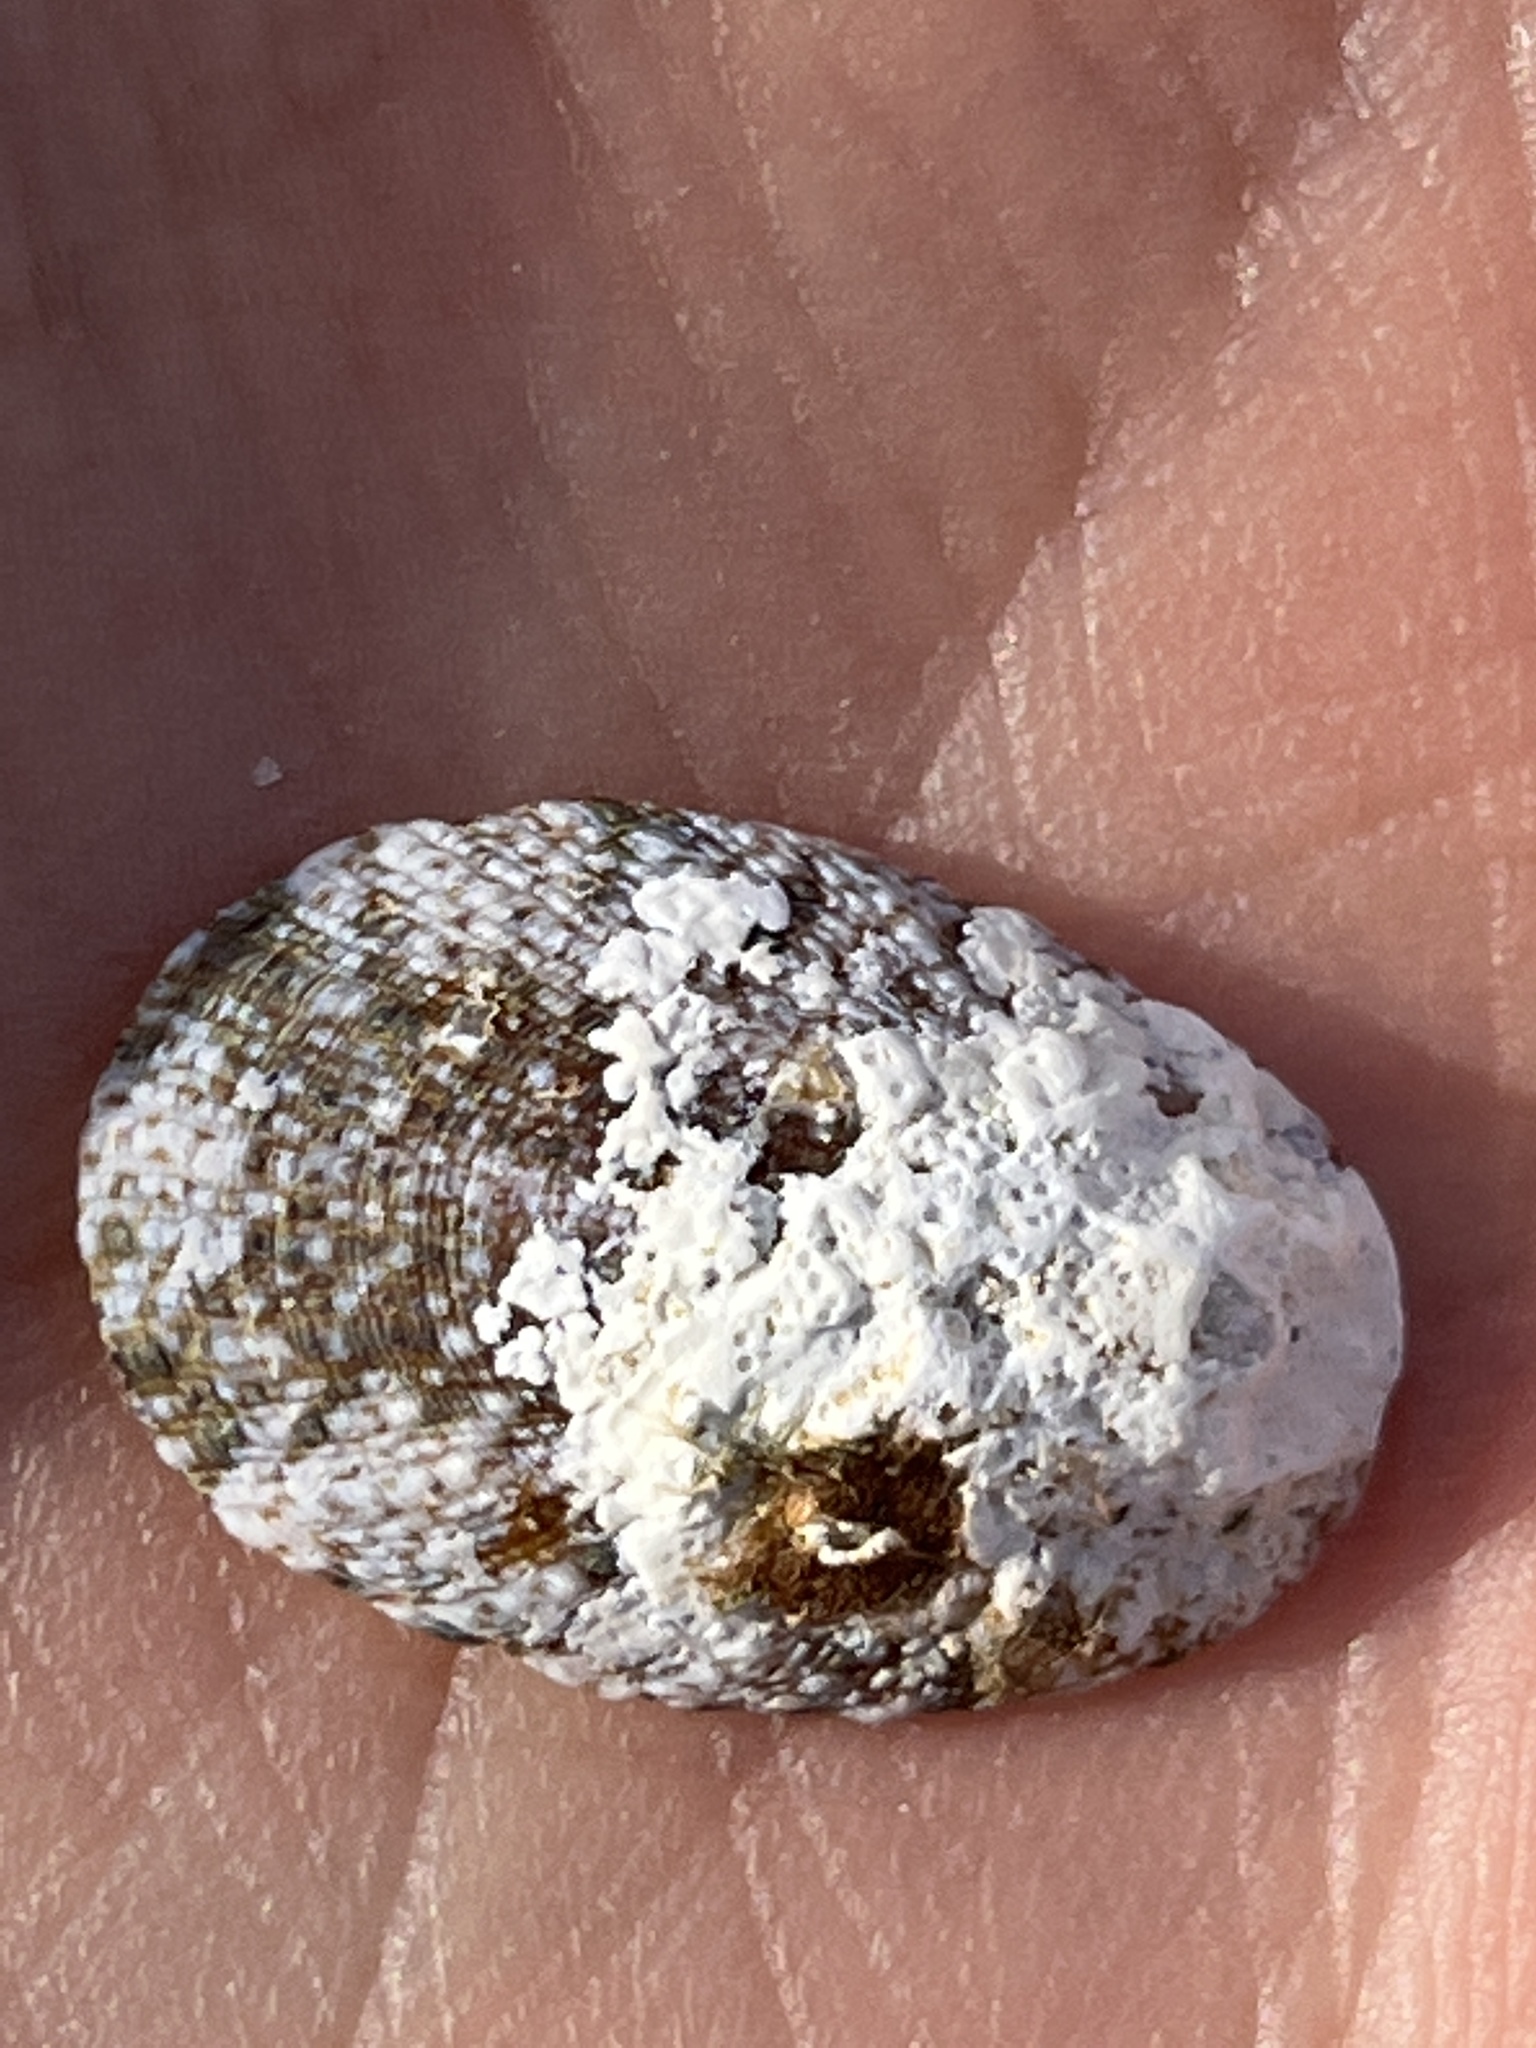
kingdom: Animalia
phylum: Mollusca
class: Gastropoda
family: Nacellidae
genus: Cellana
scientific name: Cellana toreuma
